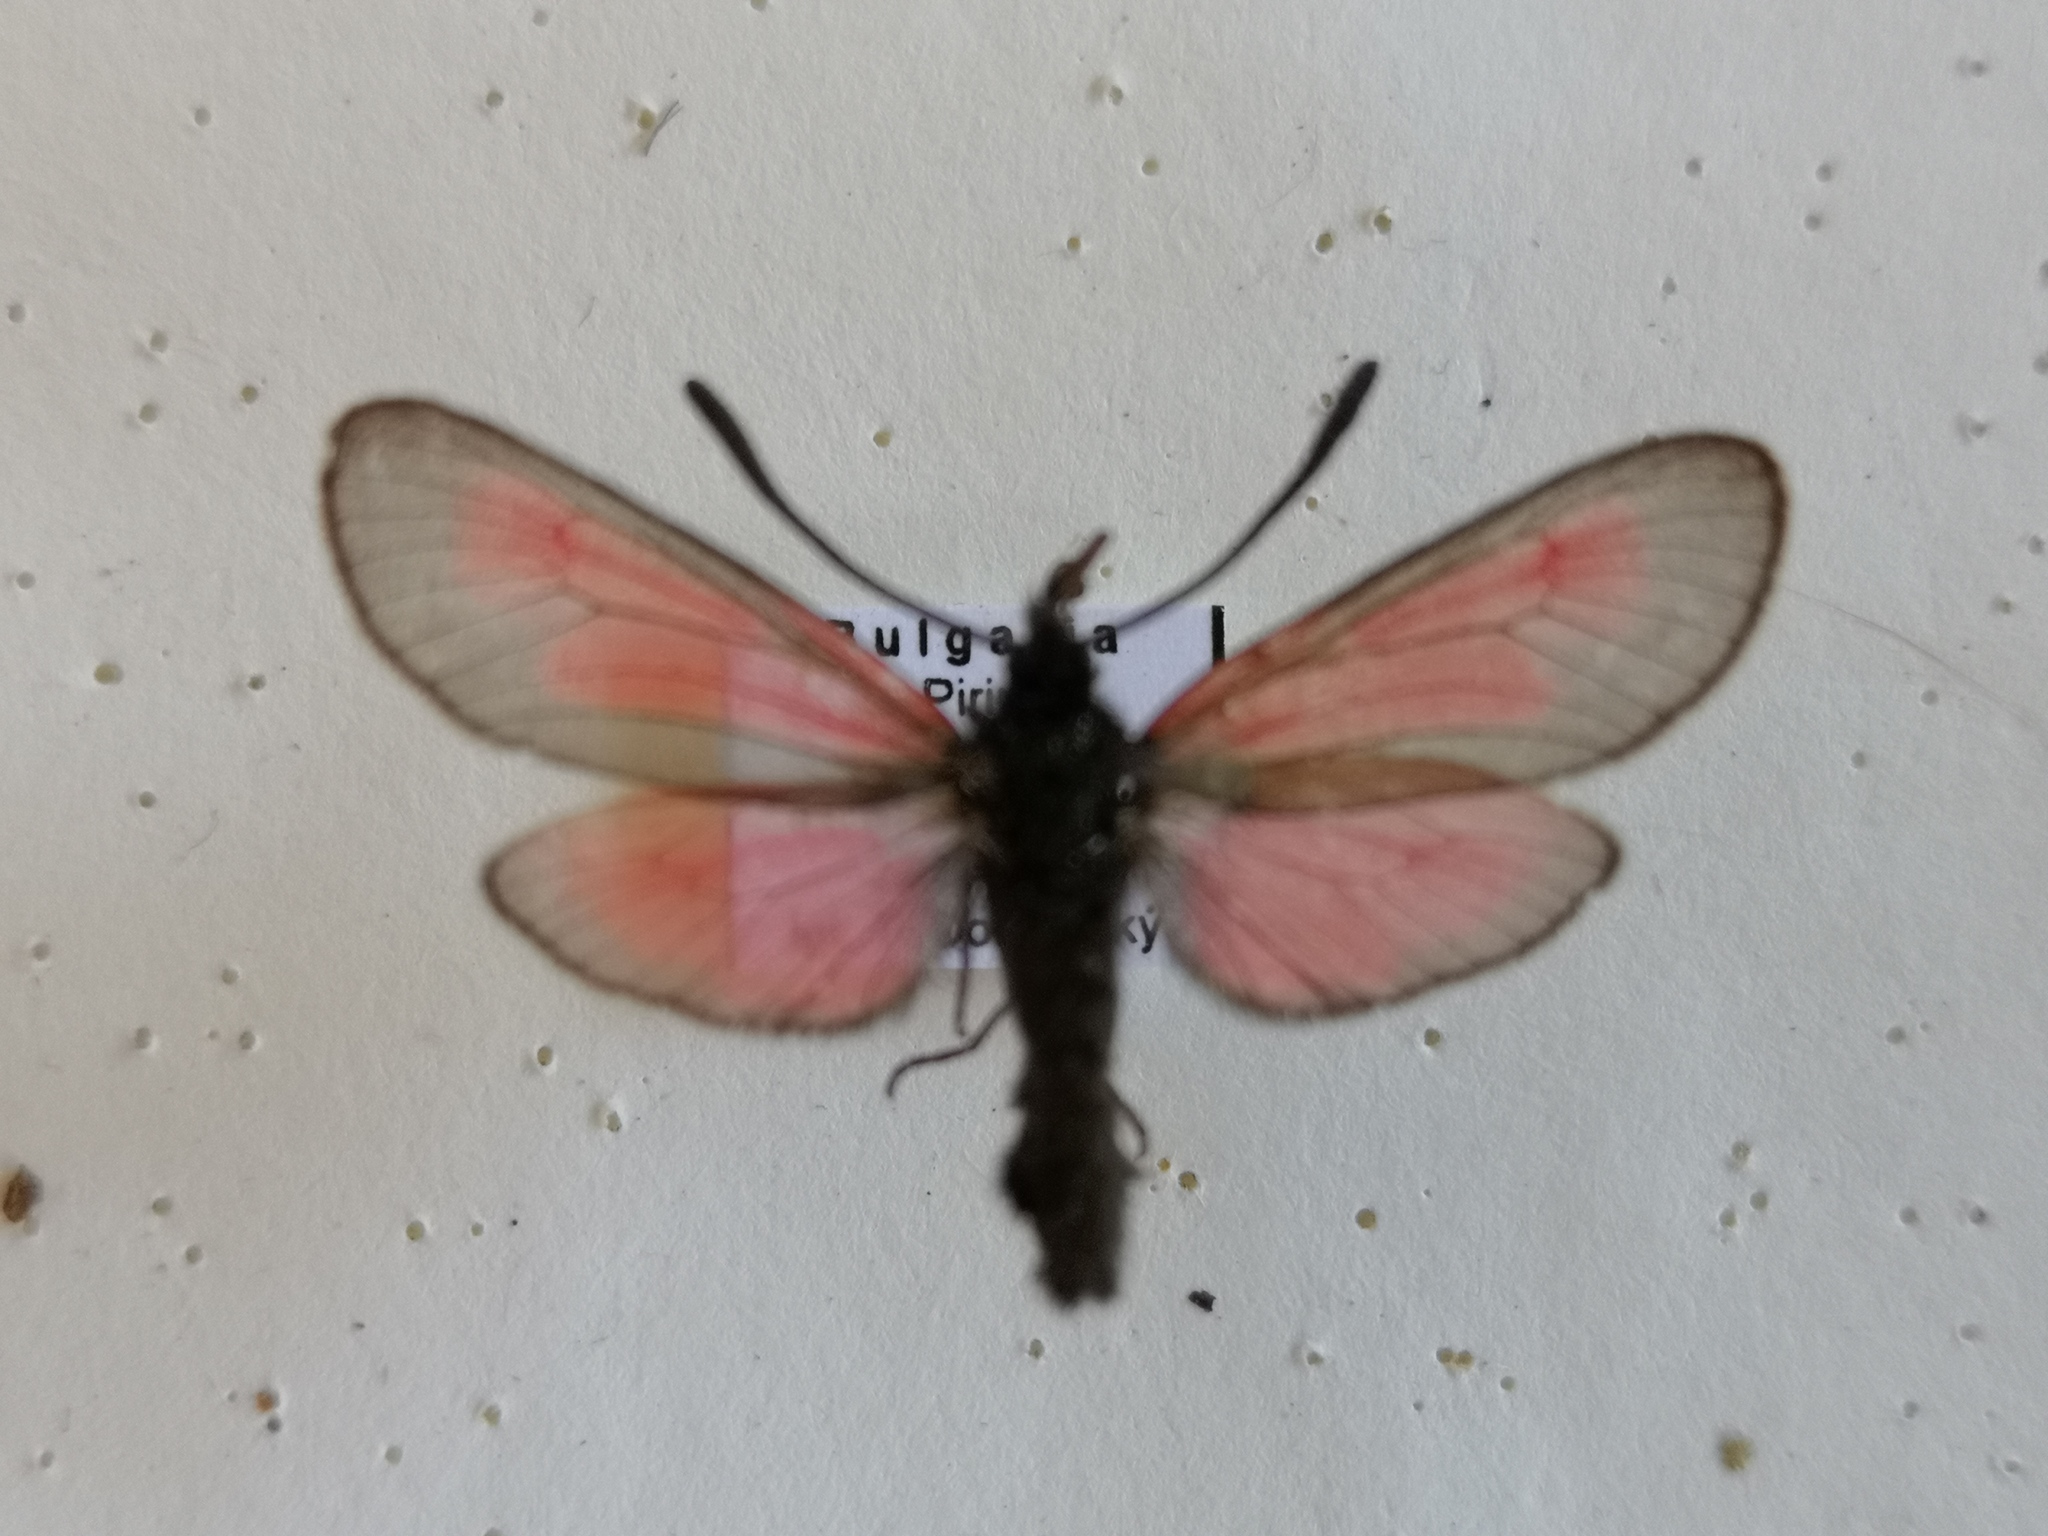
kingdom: Animalia
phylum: Arthropoda
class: Insecta
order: Lepidoptera
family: Zygaenidae
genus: Zygaena
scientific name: Zygaena brizae
